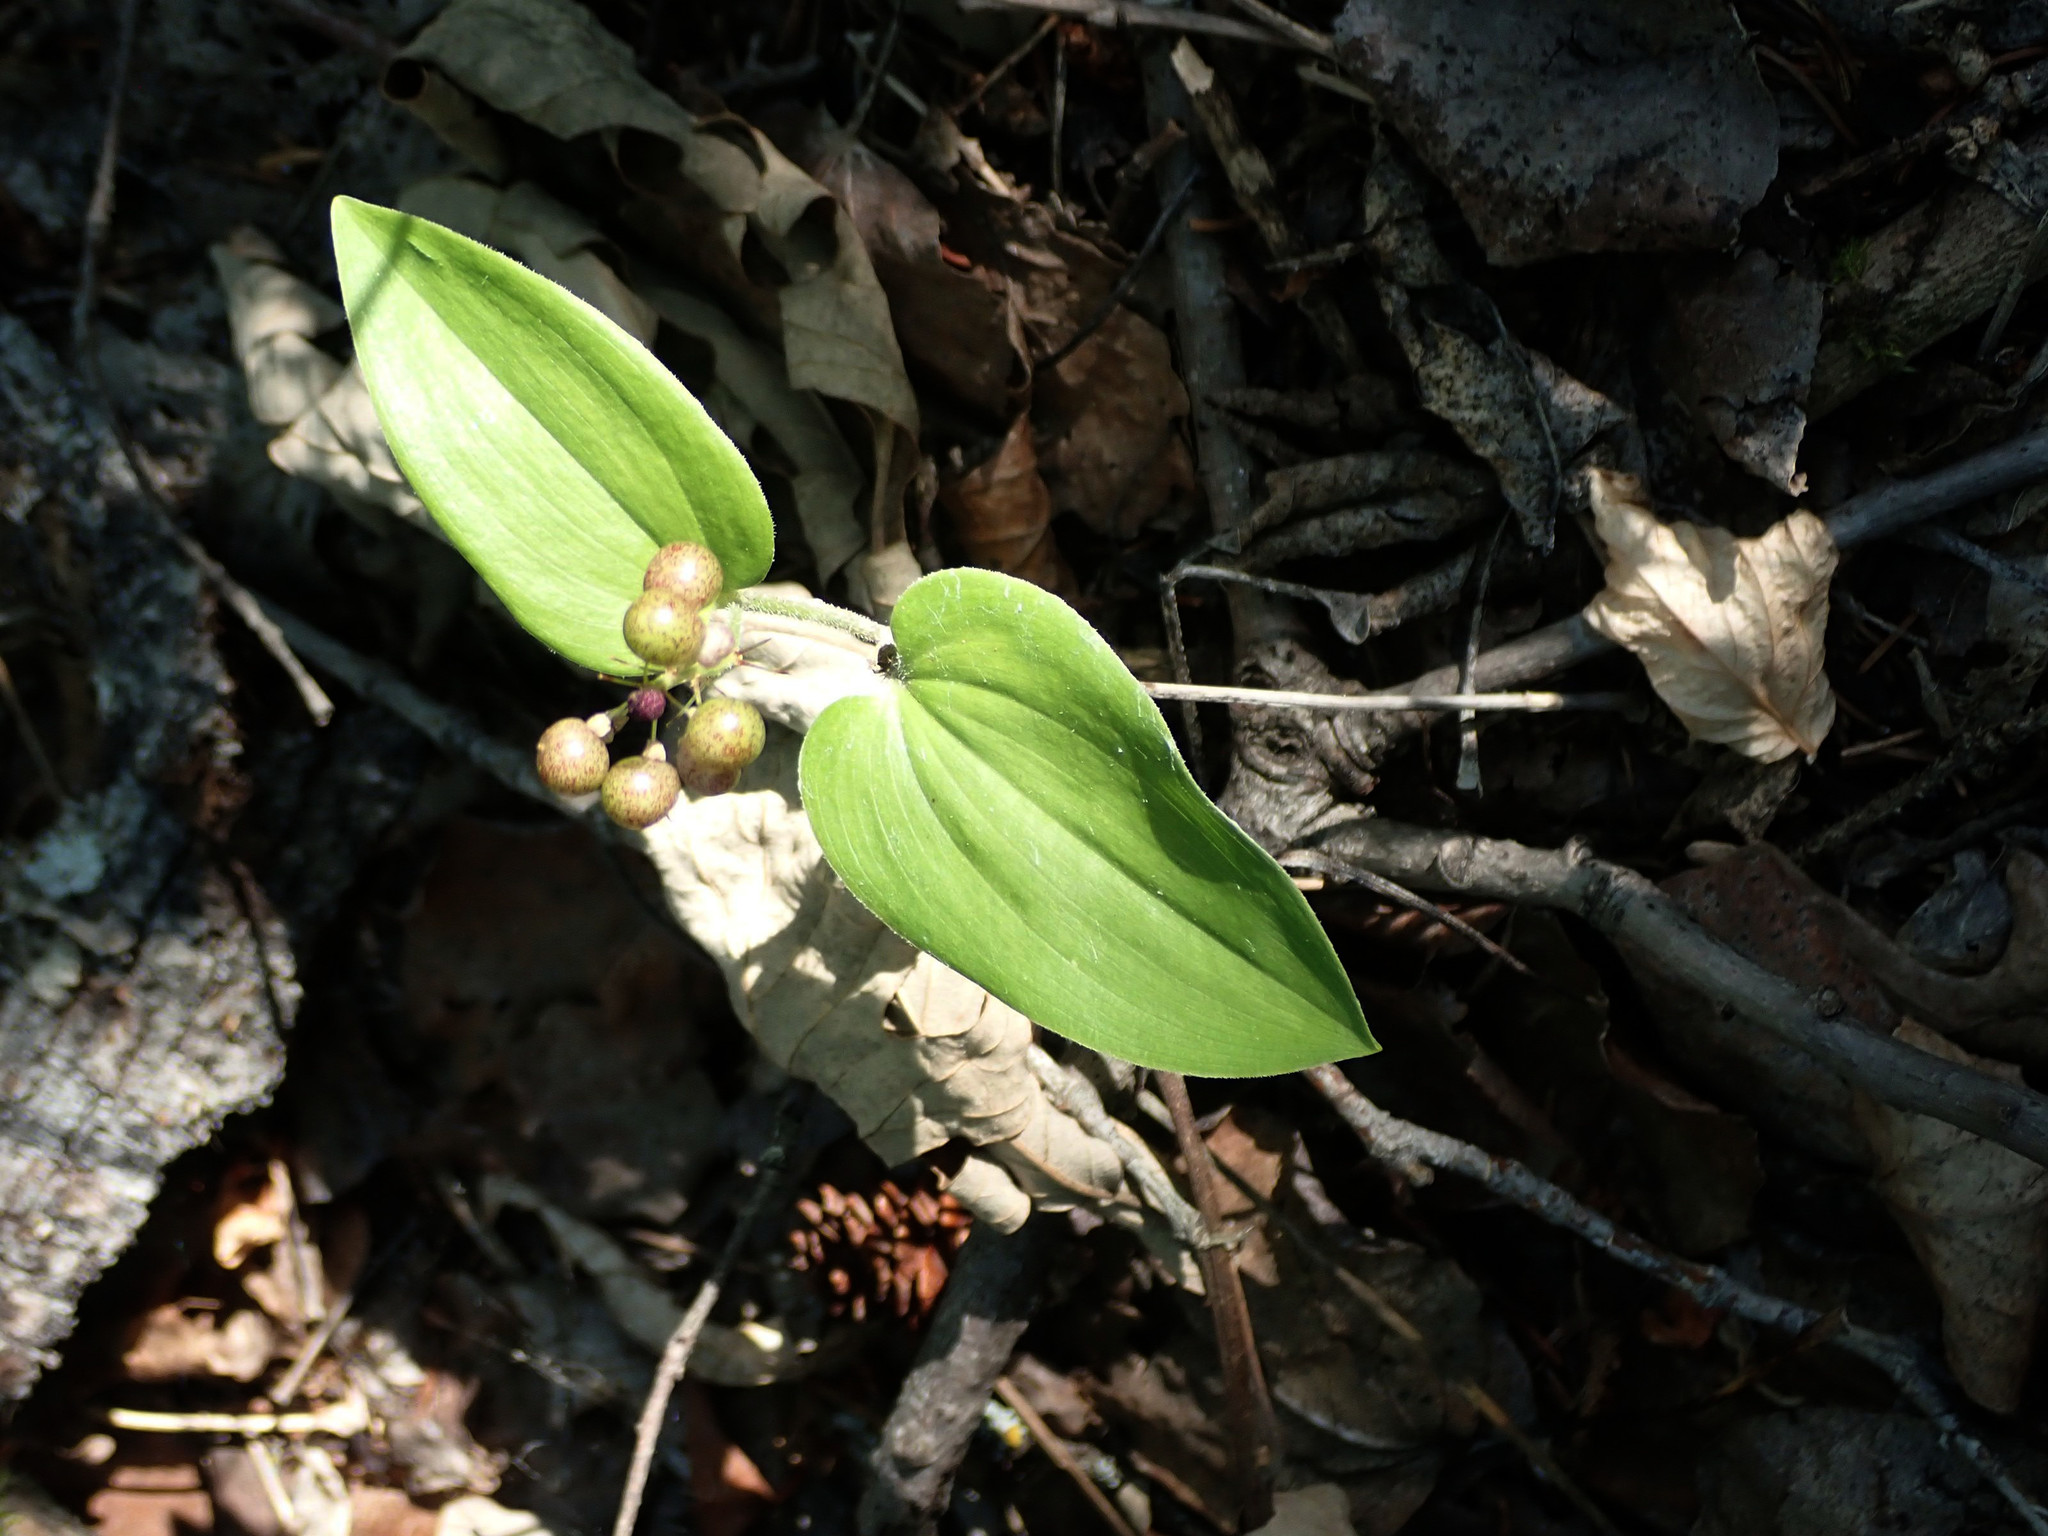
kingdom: Plantae
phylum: Tracheophyta
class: Liliopsida
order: Asparagales
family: Asparagaceae
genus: Maianthemum
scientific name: Maianthemum canadense
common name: False lily-of-the-valley
